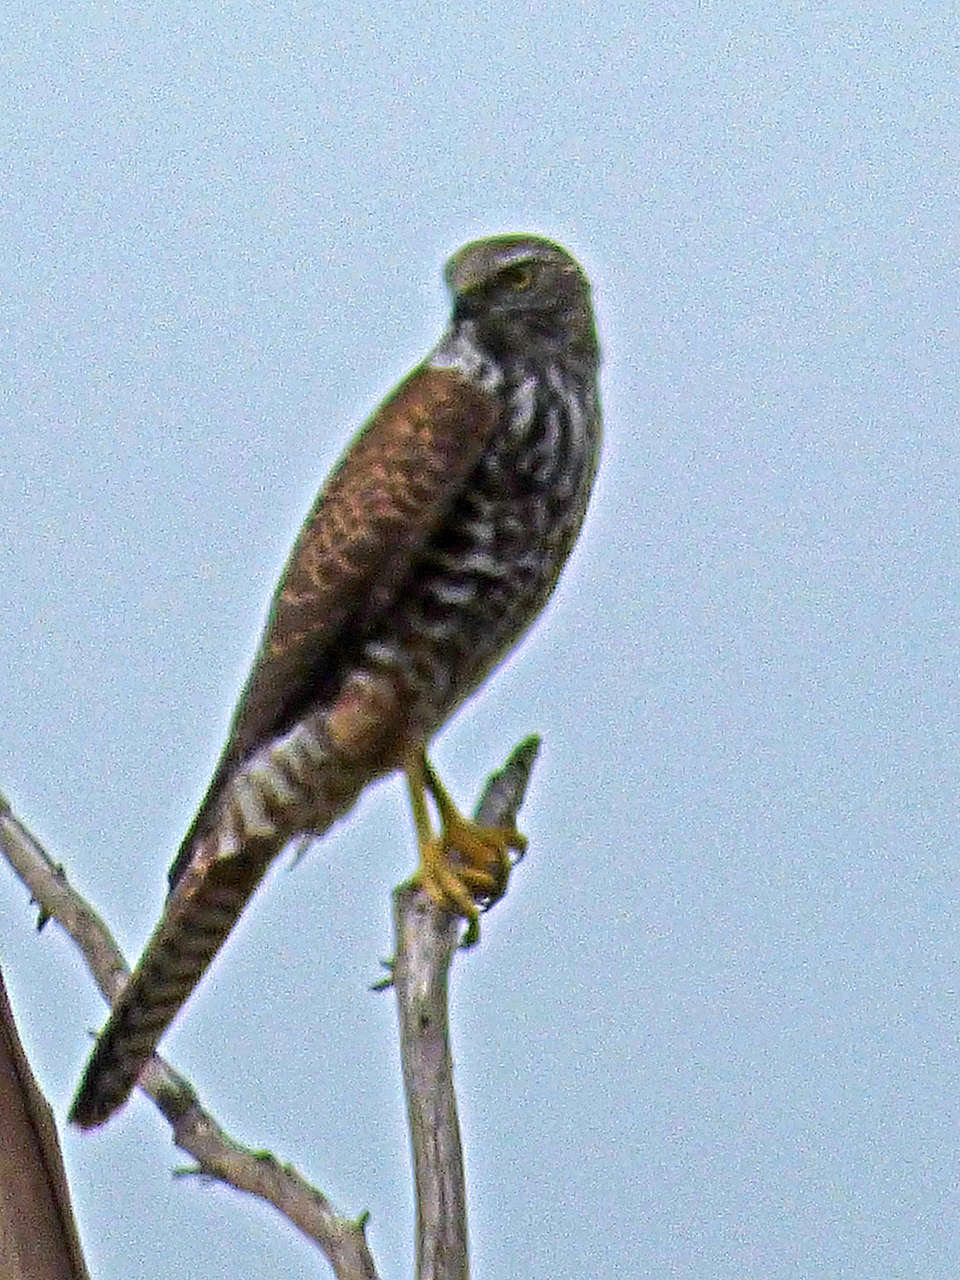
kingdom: Animalia
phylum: Chordata
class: Aves
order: Accipitriformes
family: Accipitridae
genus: Accipiter
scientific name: Accipiter fasciatus
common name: Brown goshawk
